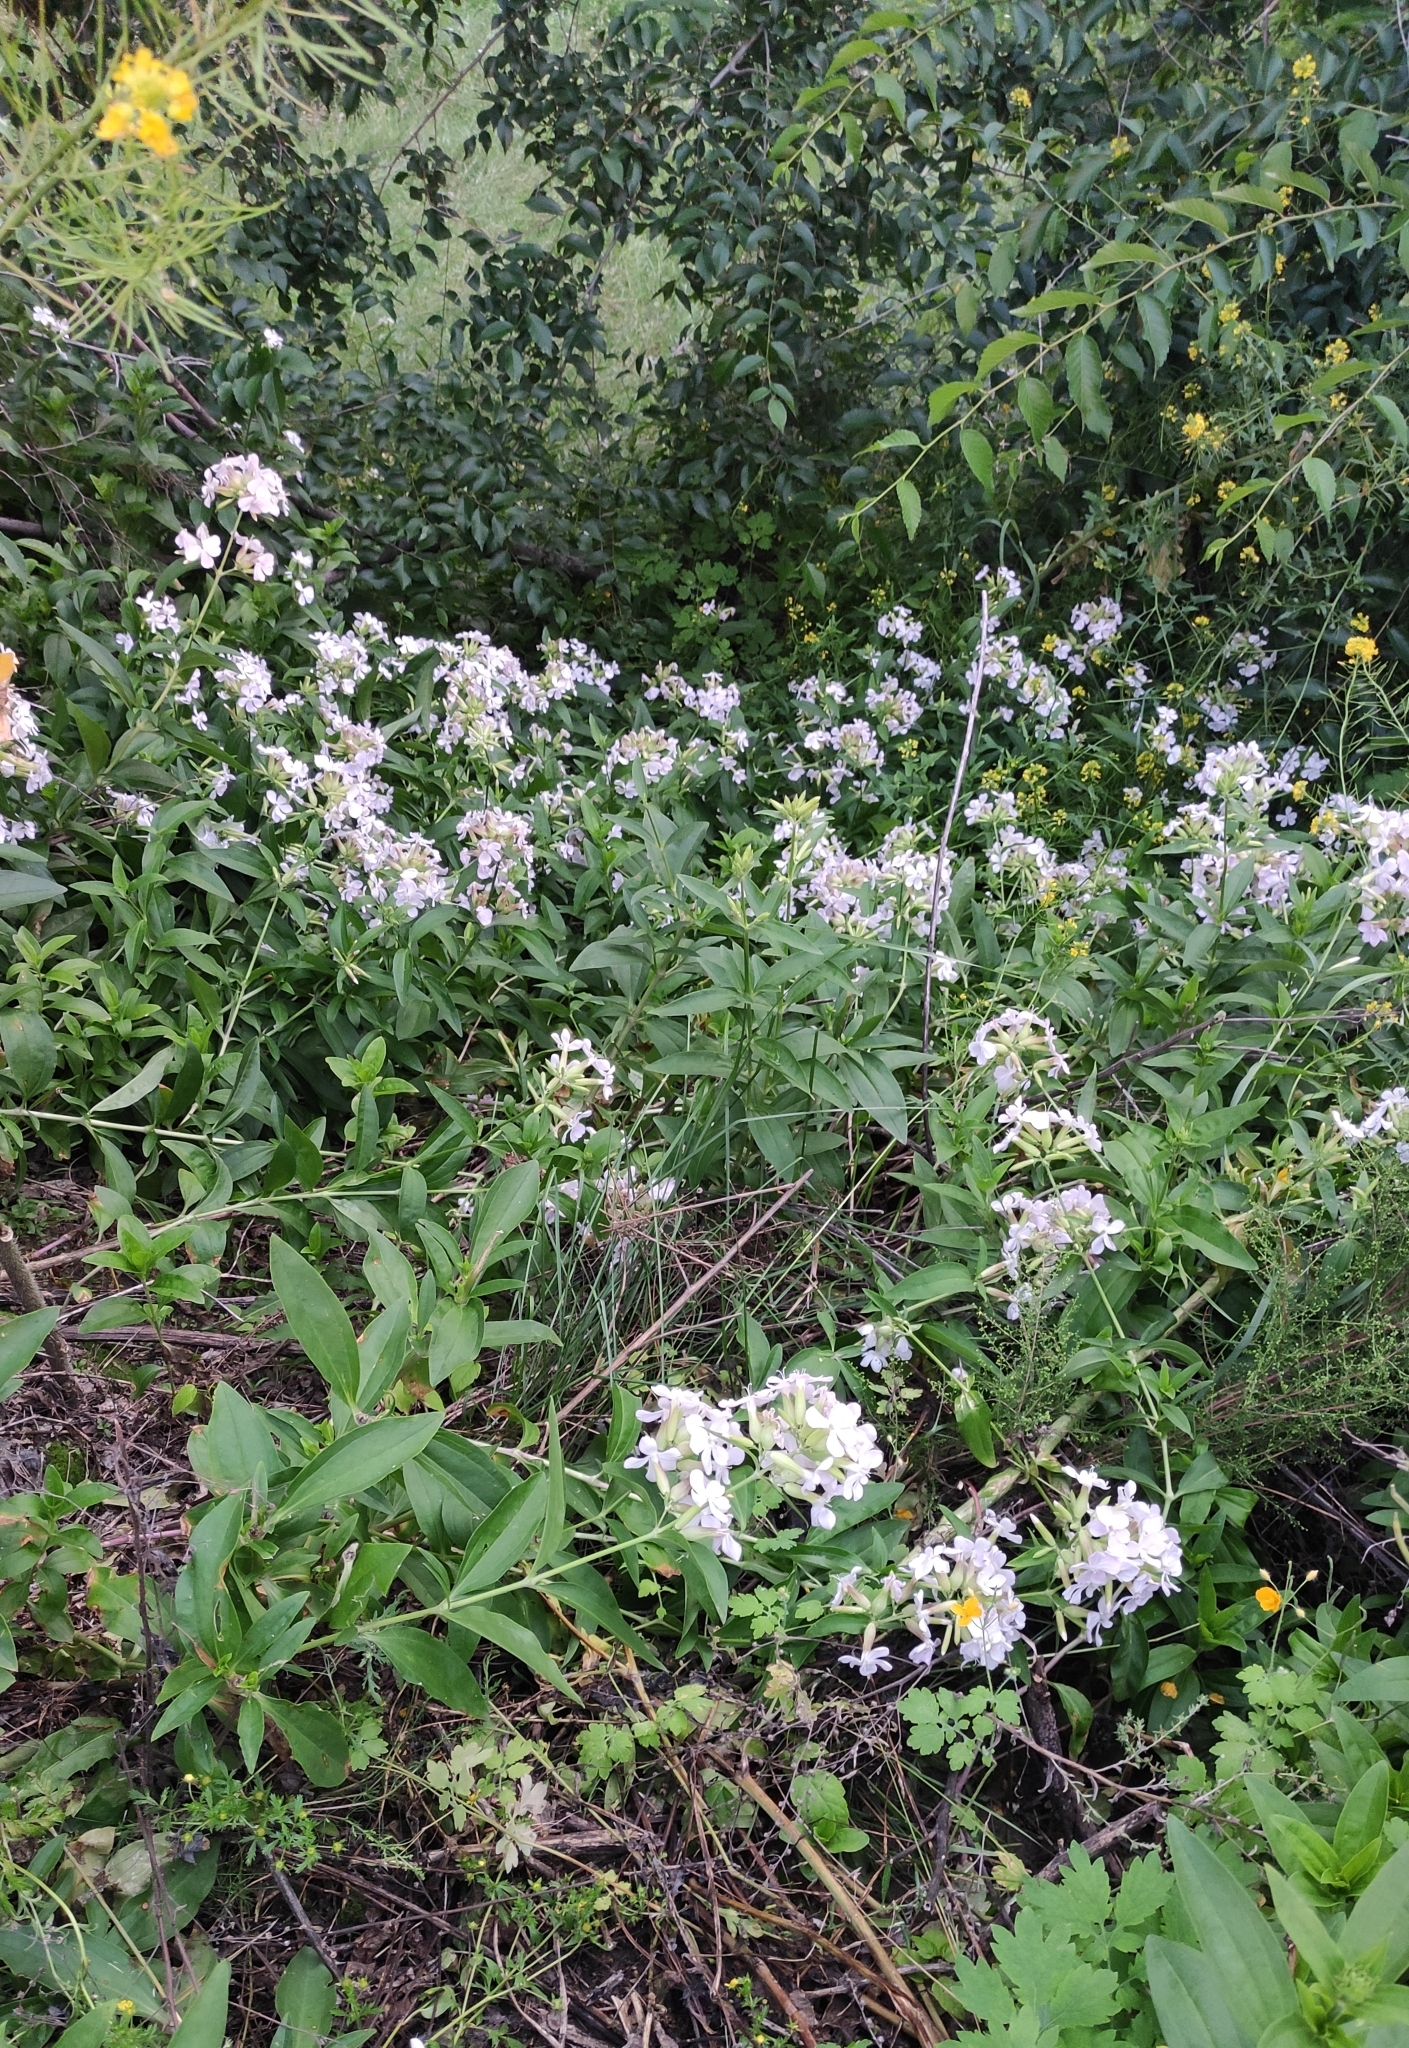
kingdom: Plantae
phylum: Tracheophyta
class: Magnoliopsida
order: Caryophyllales
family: Caryophyllaceae
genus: Saponaria
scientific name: Saponaria officinalis
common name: Soapwort
